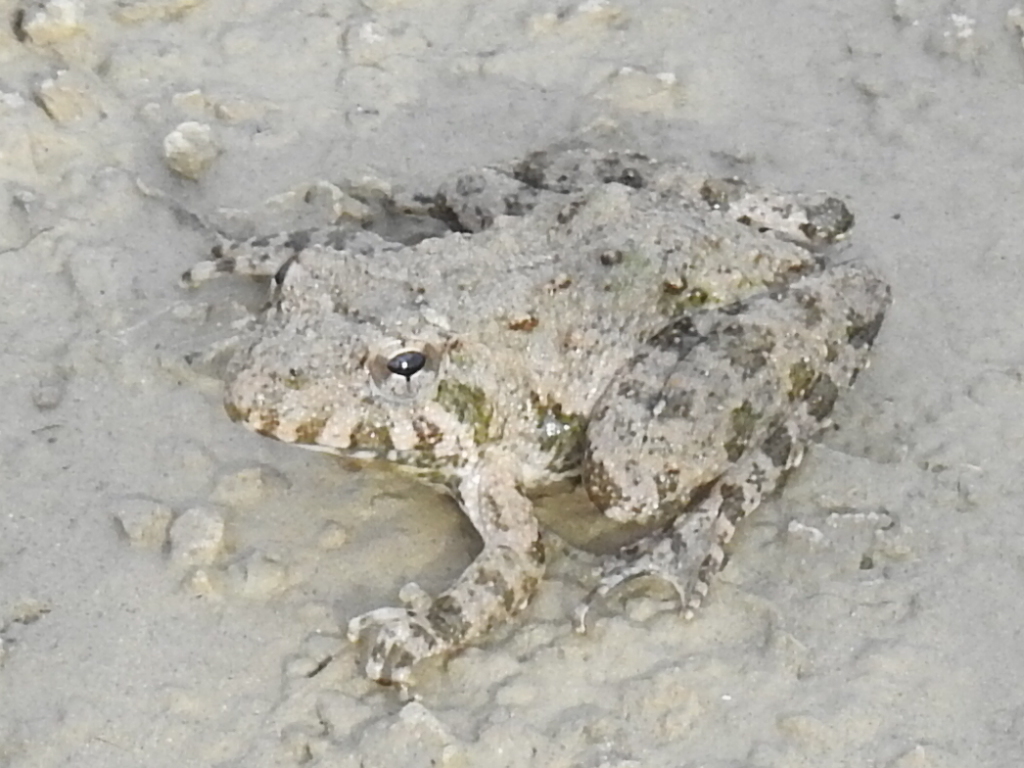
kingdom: Animalia
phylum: Chordata
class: Amphibia
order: Anura
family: Hylidae
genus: Acris
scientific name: Acris blanchardi
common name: Blanchard's cricket frog
